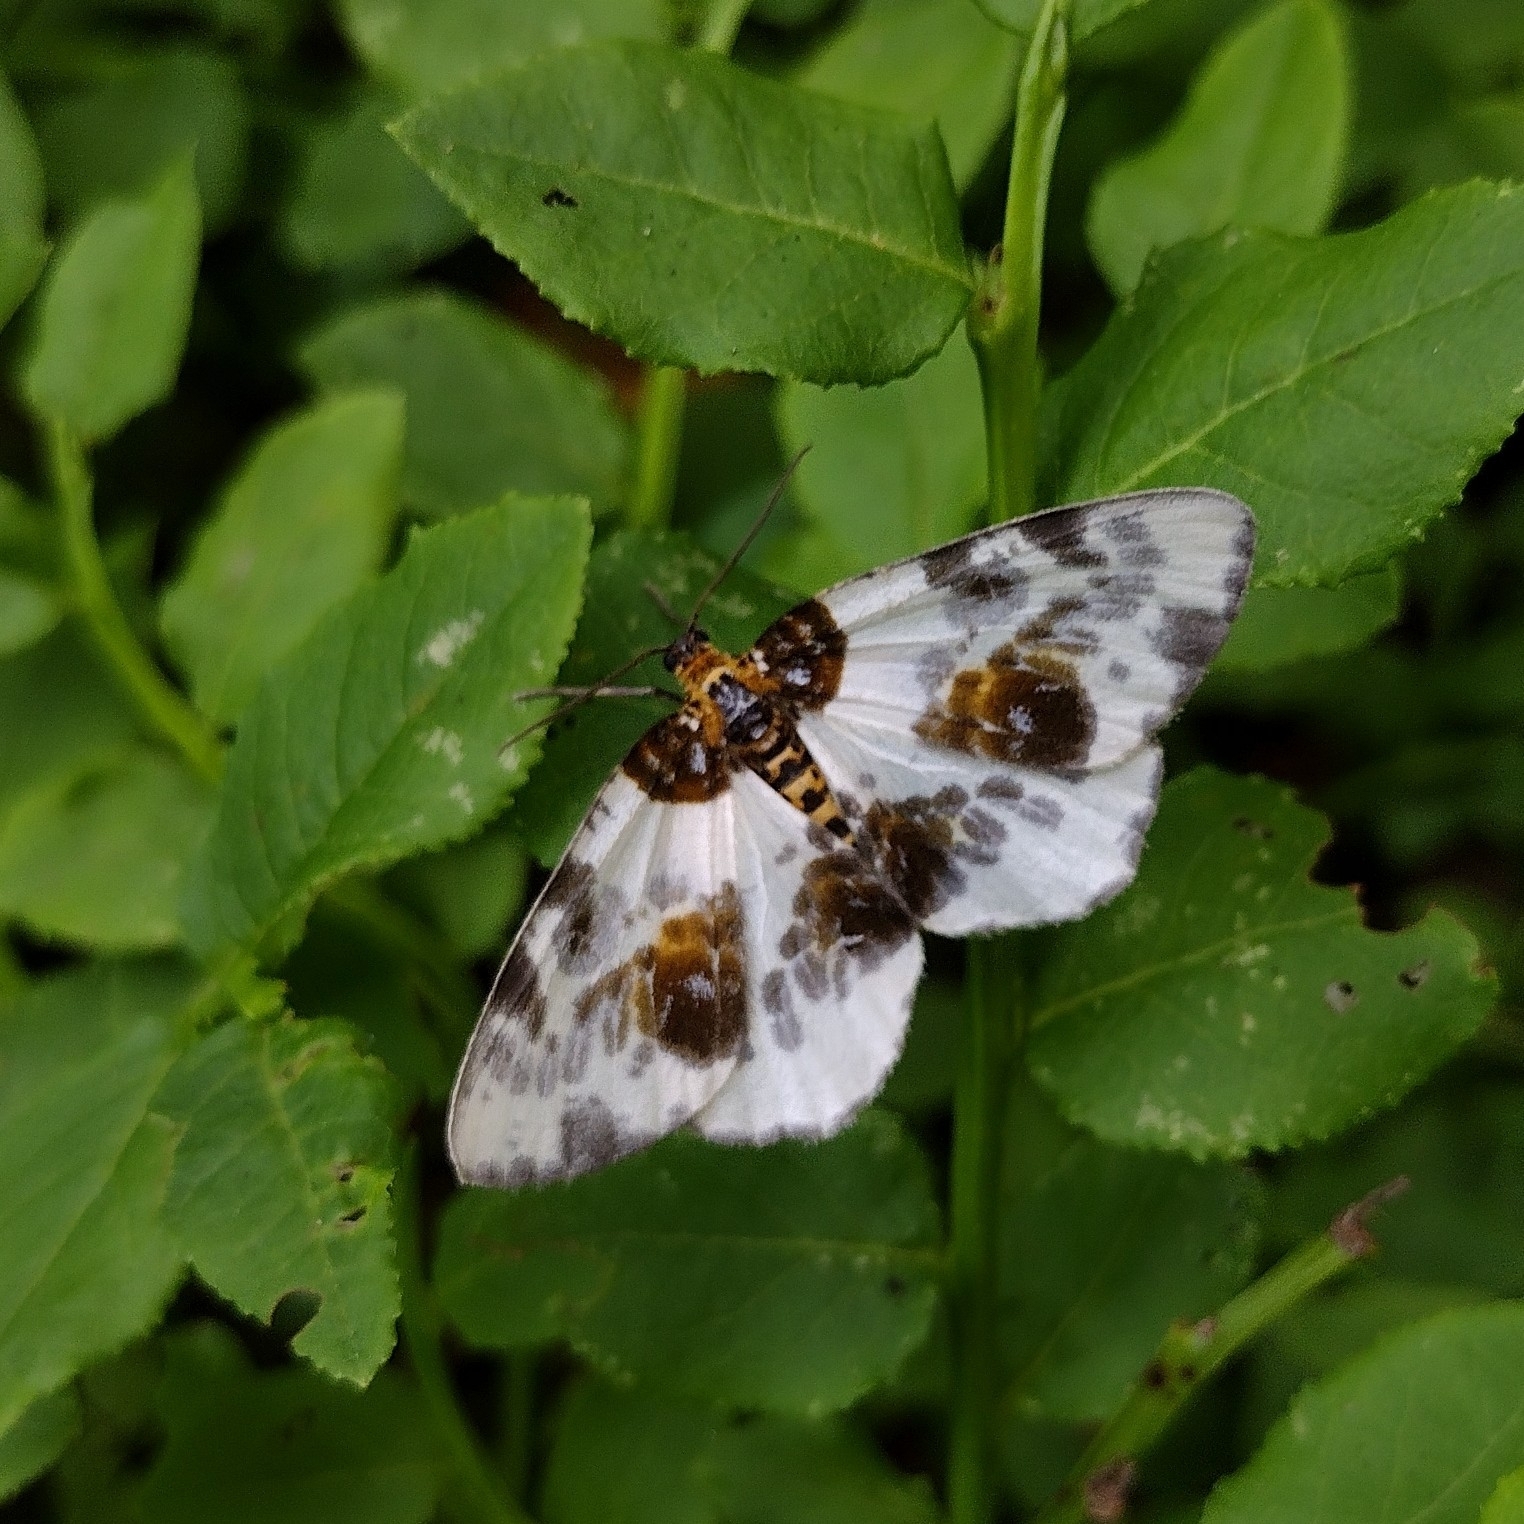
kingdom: Animalia
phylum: Arthropoda
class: Insecta
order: Lepidoptera
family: Geometridae
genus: Abraxas
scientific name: Abraxas sylvata
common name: Clouded magpie
